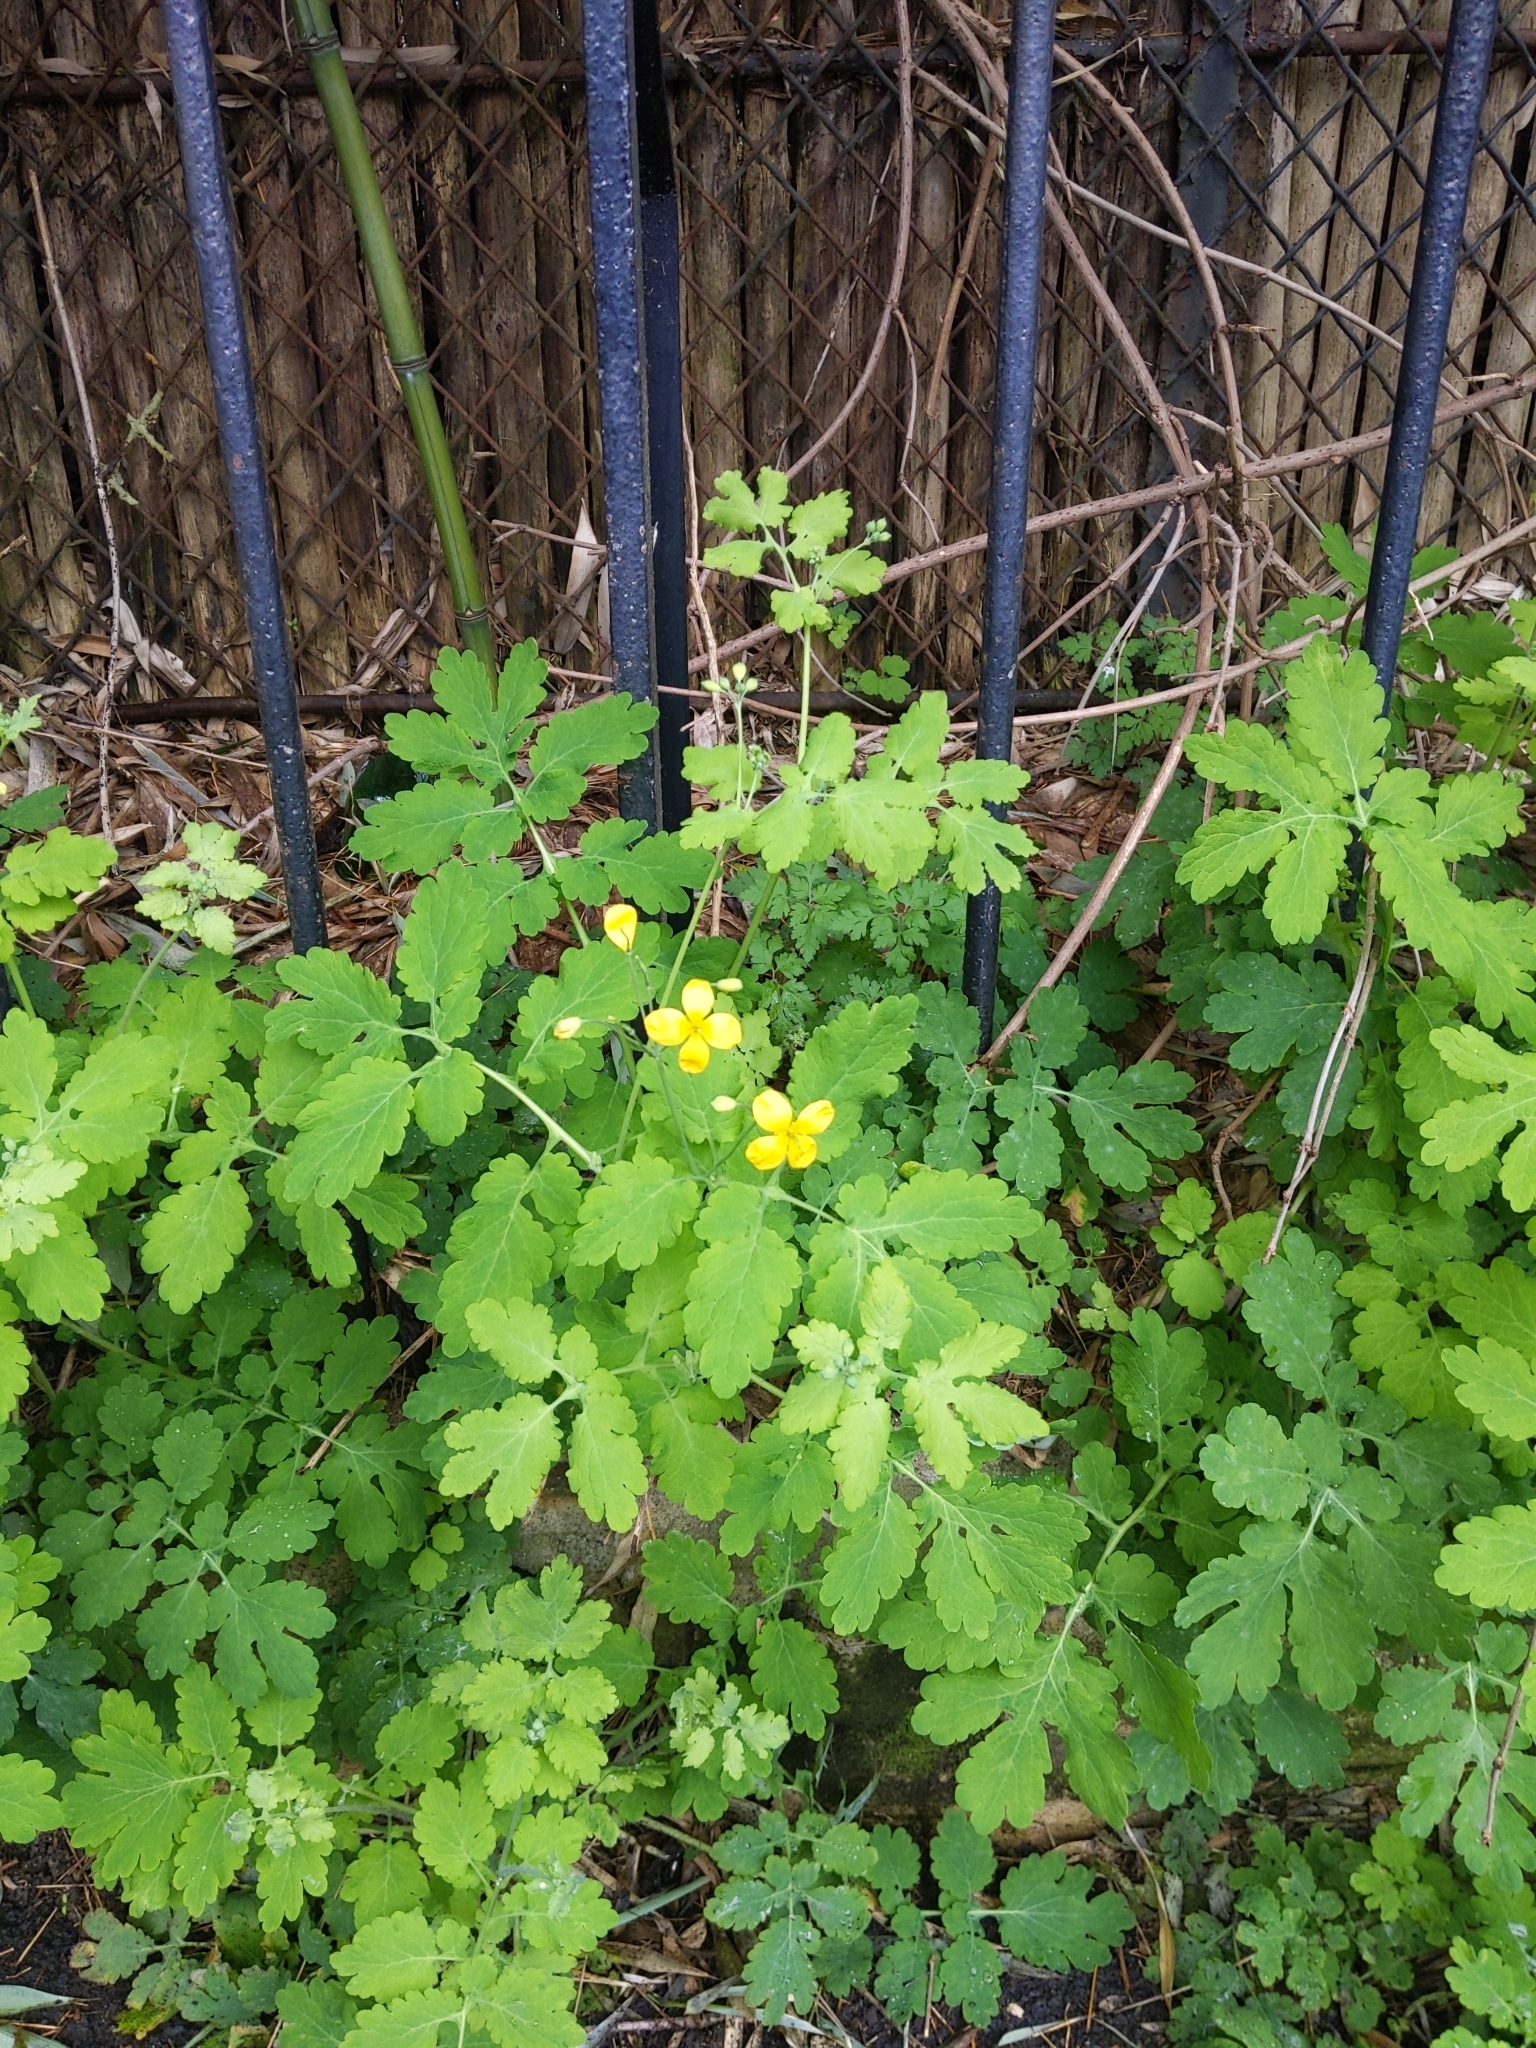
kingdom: Plantae
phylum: Tracheophyta
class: Magnoliopsida
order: Ranunculales
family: Papaveraceae
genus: Chelidonium
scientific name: Chelidonium majus
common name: Greater celandine
